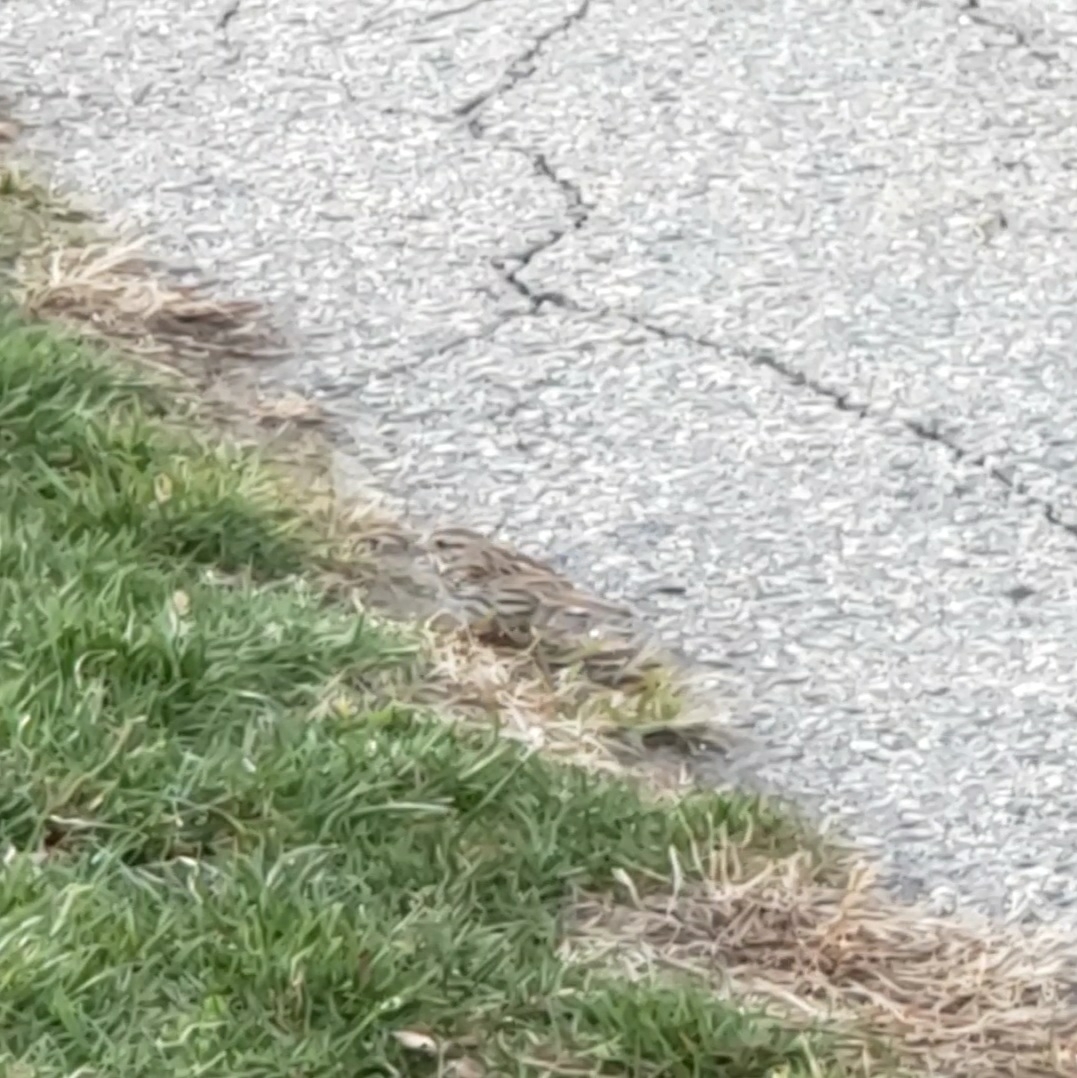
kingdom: Animalia
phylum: Chordata
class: Aves
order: Passeriformes
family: Passerellidae
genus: Melospiza
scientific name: Melospiza melodia
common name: Song sparrow
